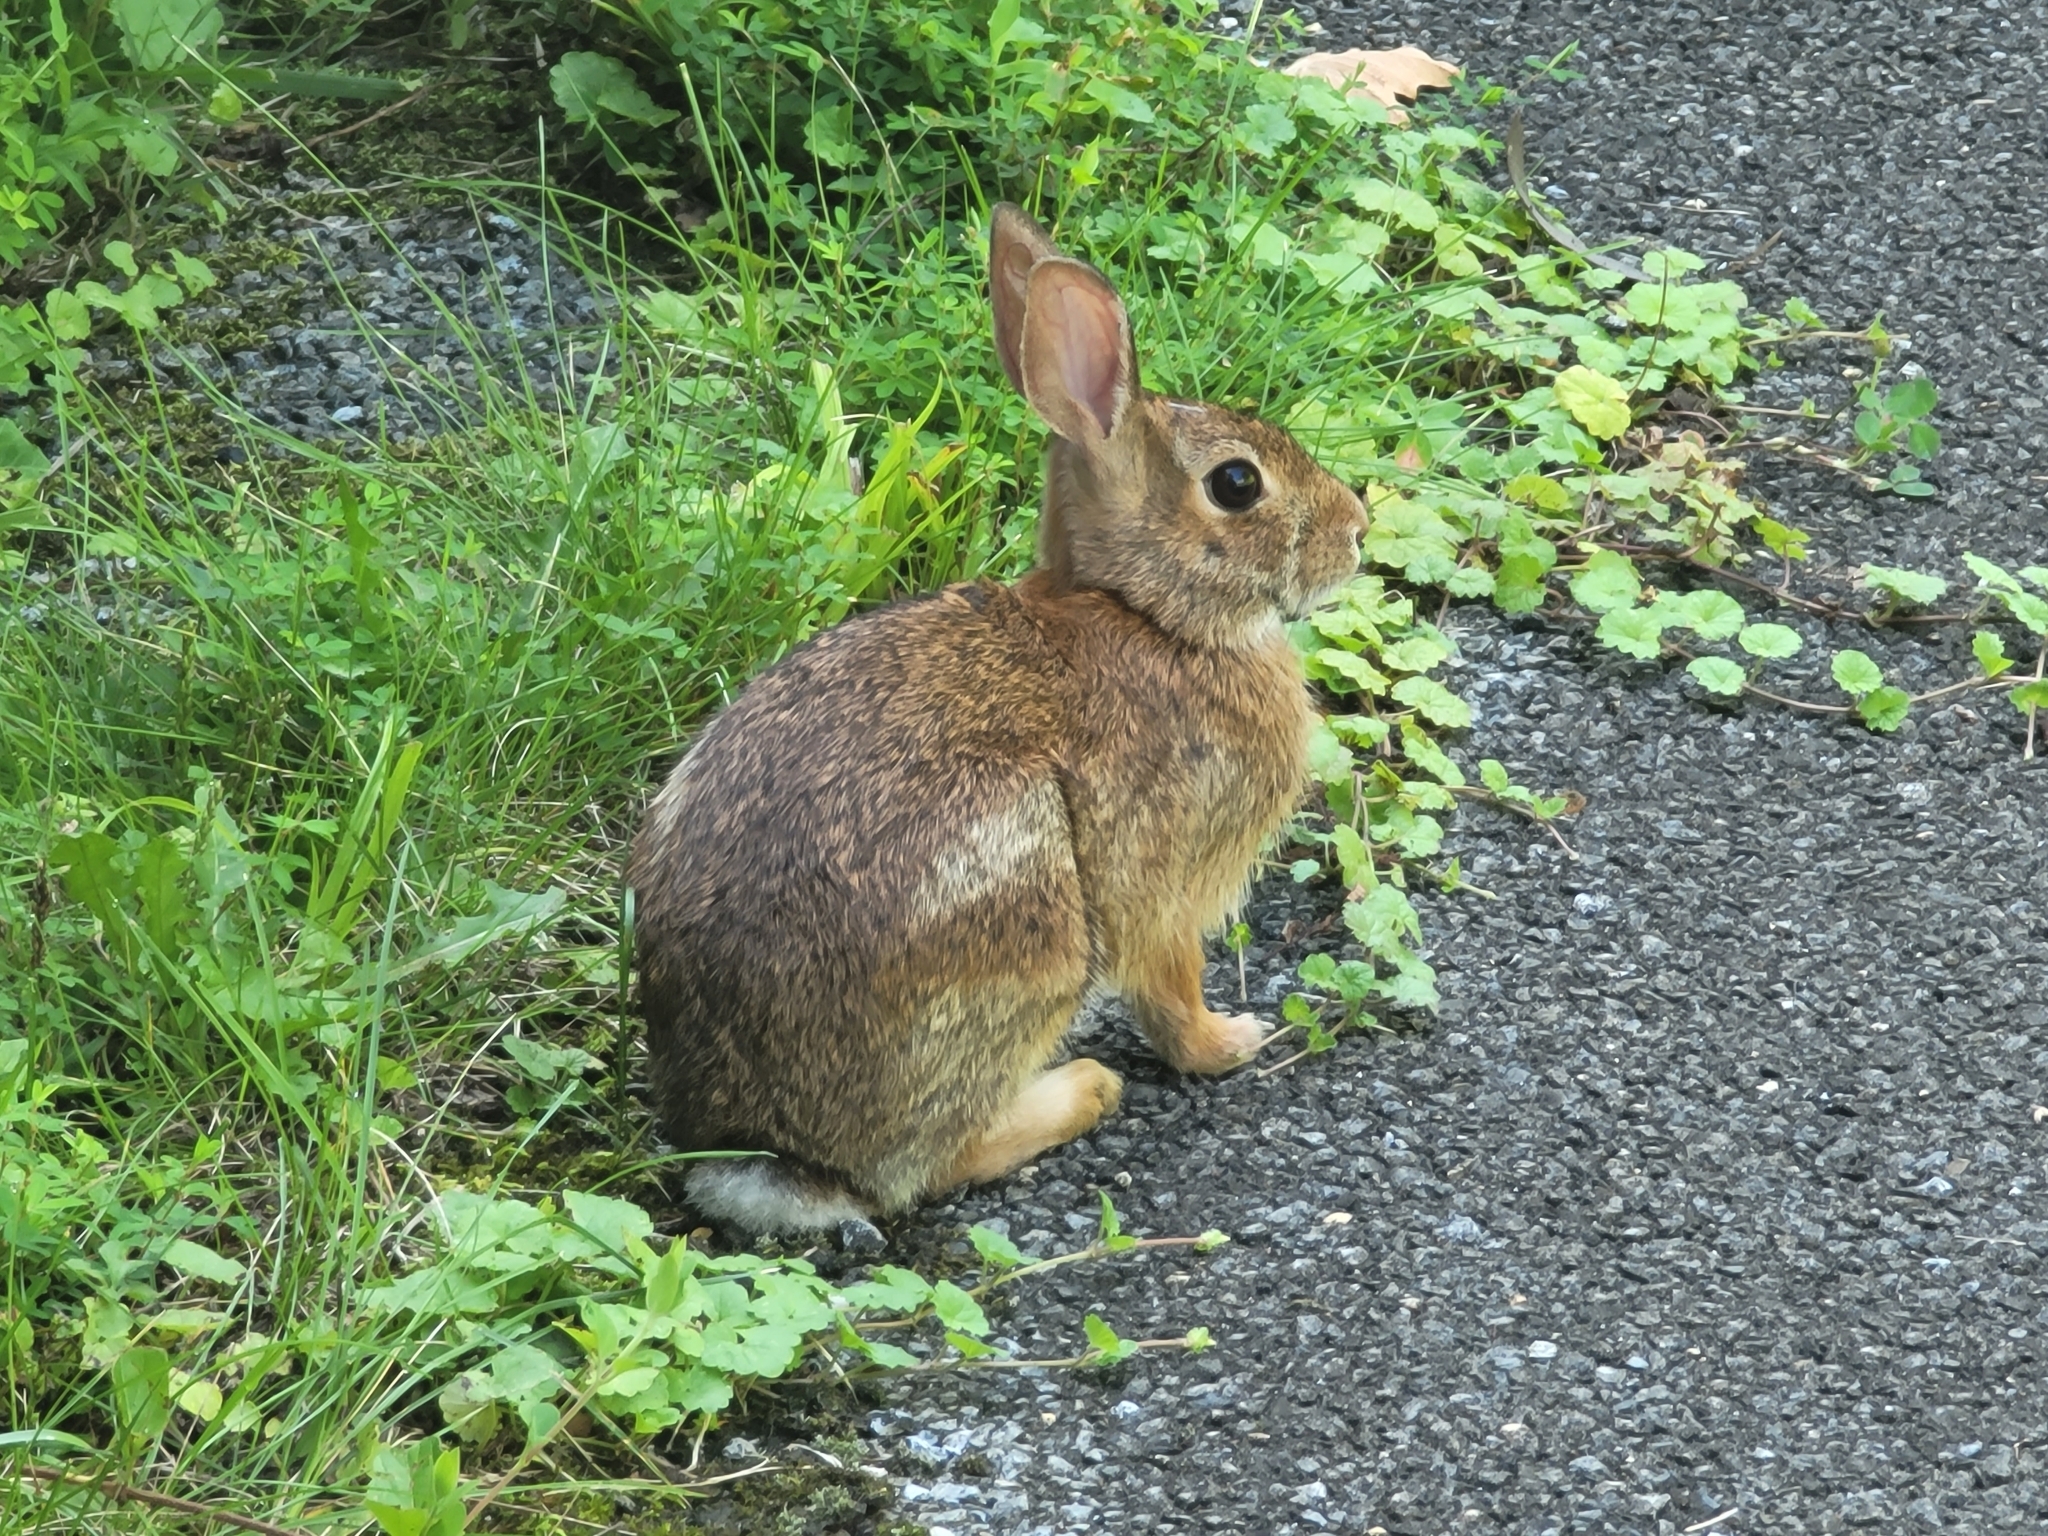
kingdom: Animalia
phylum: Chordata
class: Mammalia
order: Lagomorpha
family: Leporidae
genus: Sylvilagus
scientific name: Sylvilagus floridanus
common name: Eastern cottontail
